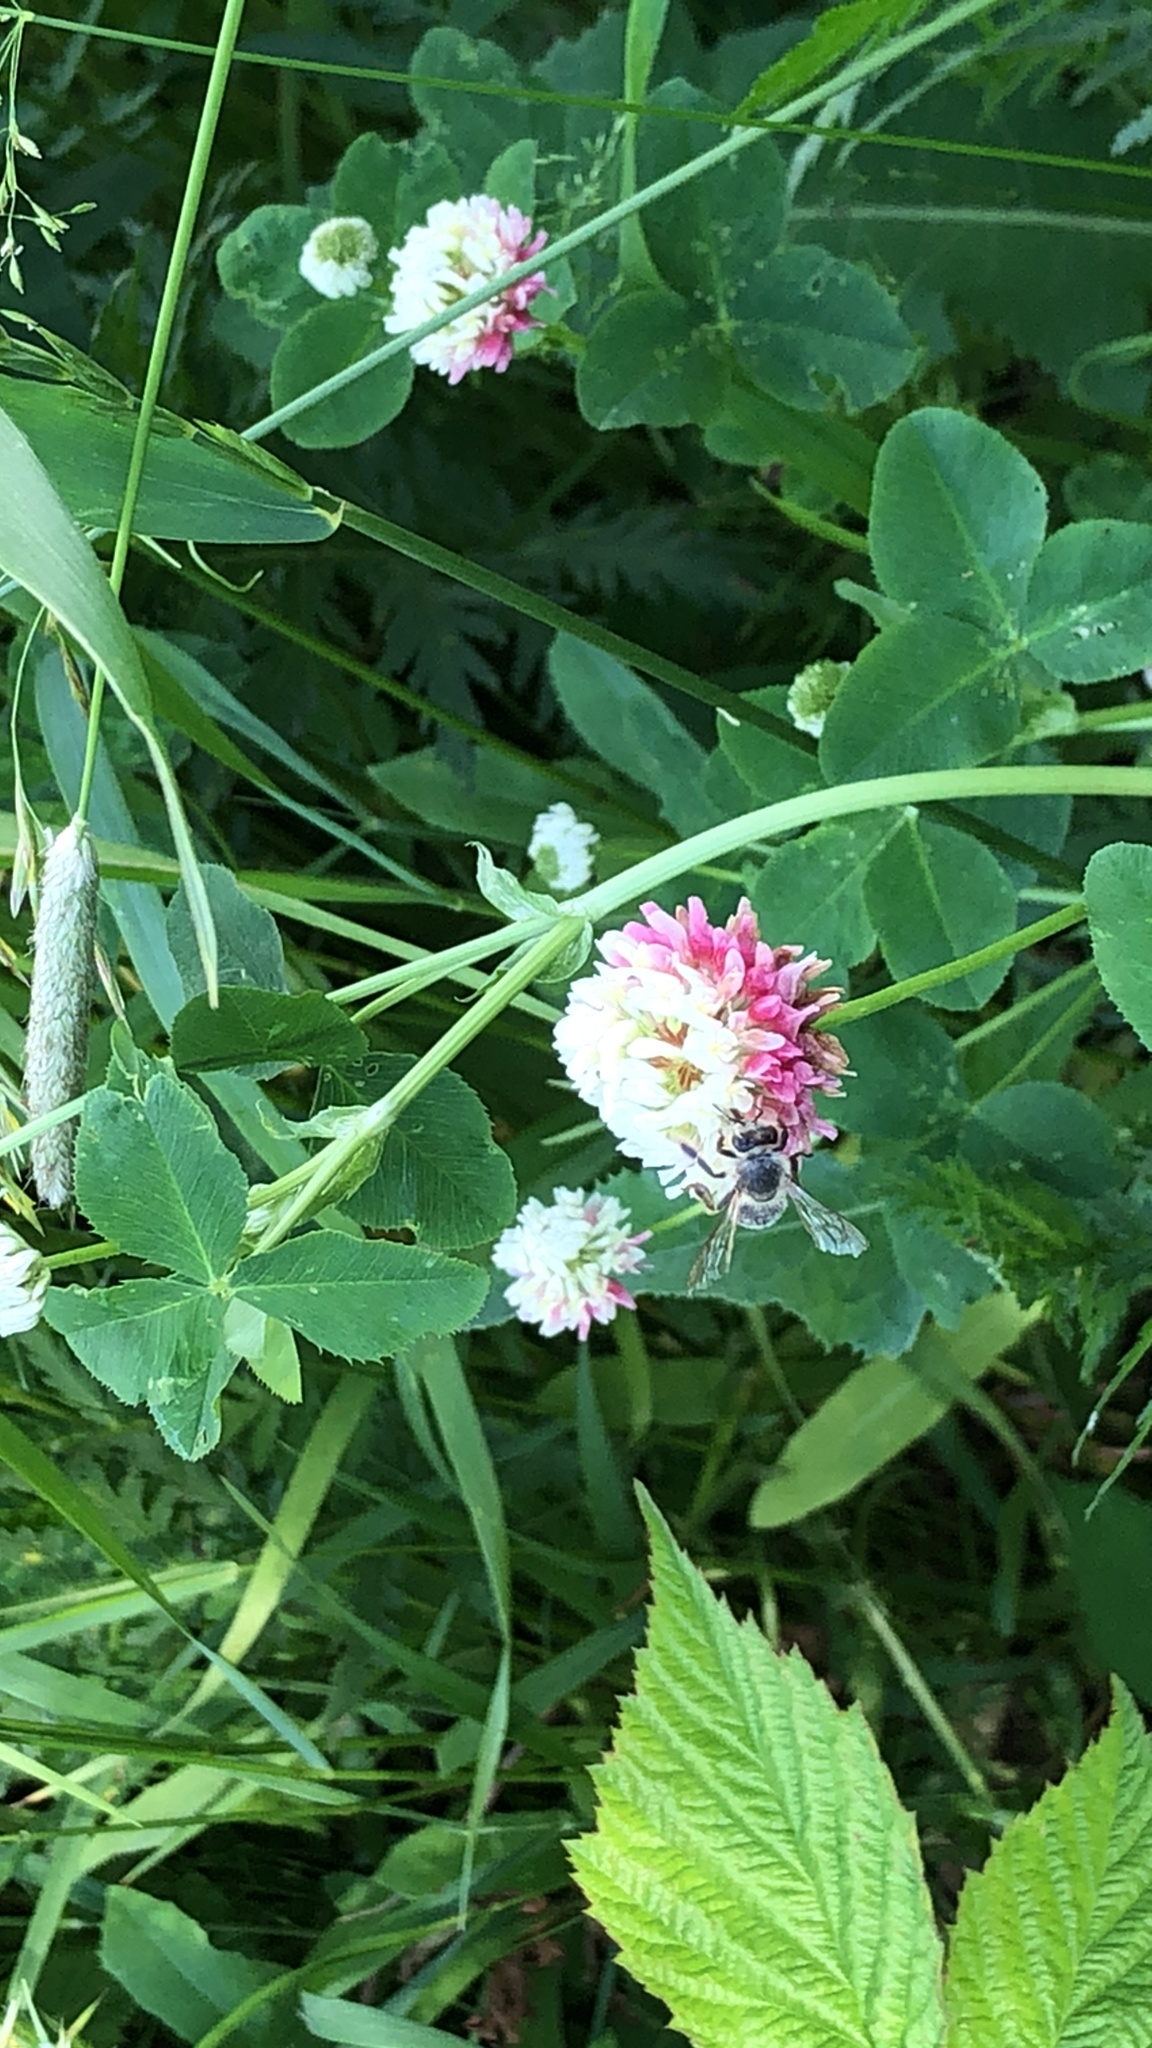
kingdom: Animalia
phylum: Arthropoda
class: Insecta
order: Hymenoptera
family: Apidae
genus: Apis
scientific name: Apis mellifera
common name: Honey bee
